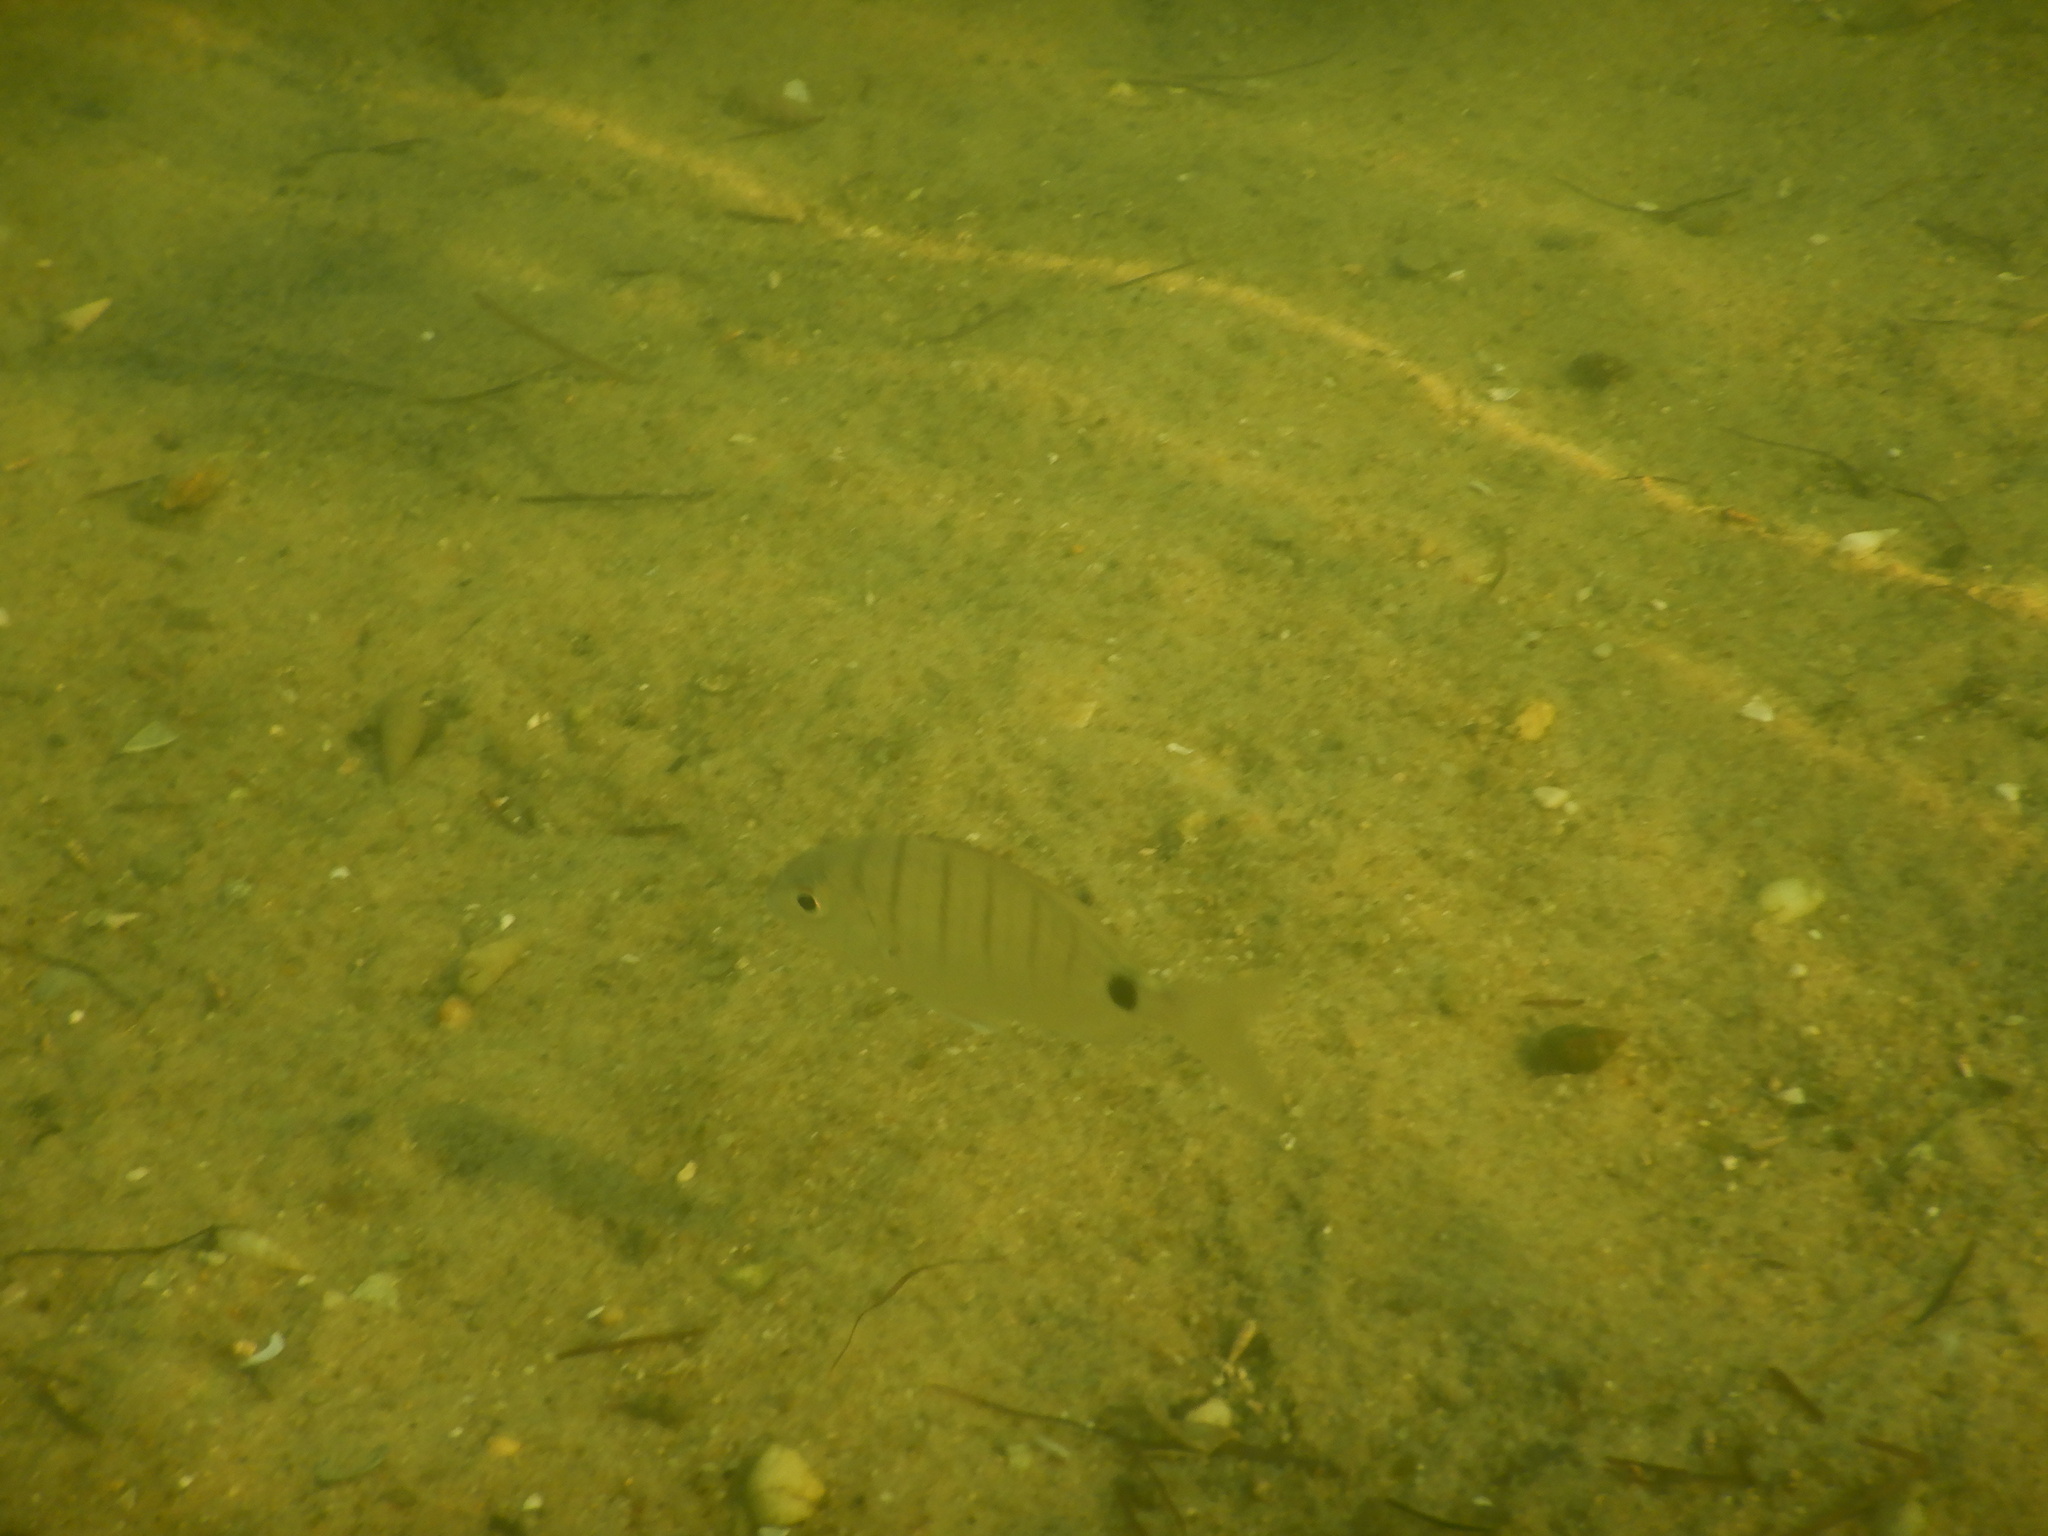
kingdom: Animalia
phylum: Chordata
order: Perciformes
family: Sparidae
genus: Diplodus
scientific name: Diplodus cadenati
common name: Moroccan white seabream
